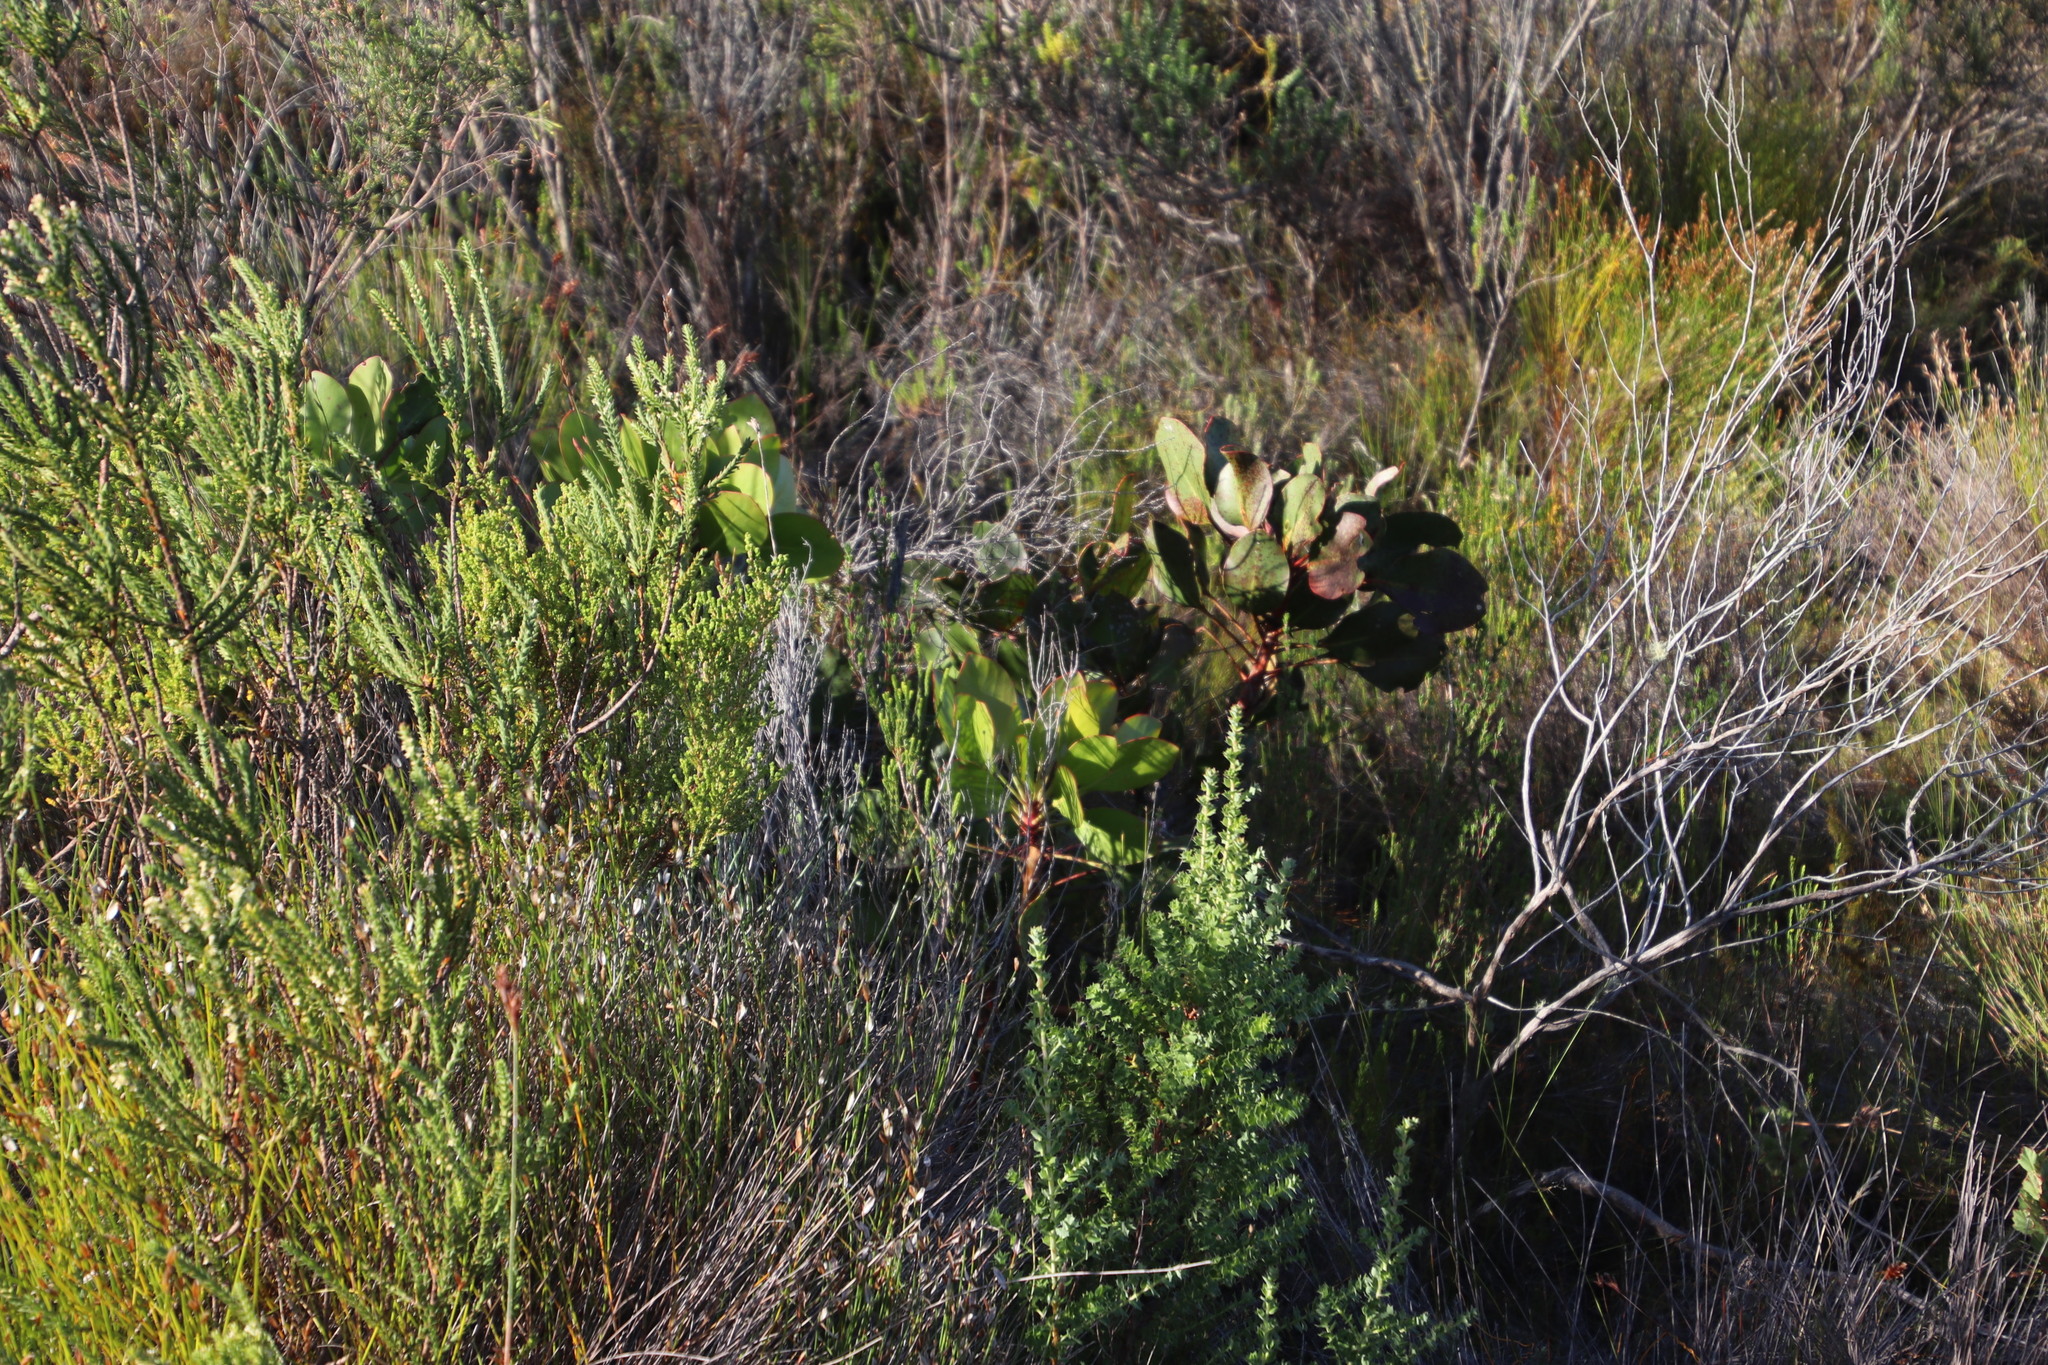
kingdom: Plantae
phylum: Tracheophyta
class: Magnoliopsida
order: Proteales
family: Proteaceae
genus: Protea
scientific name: Protea cynaroides
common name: King protea
